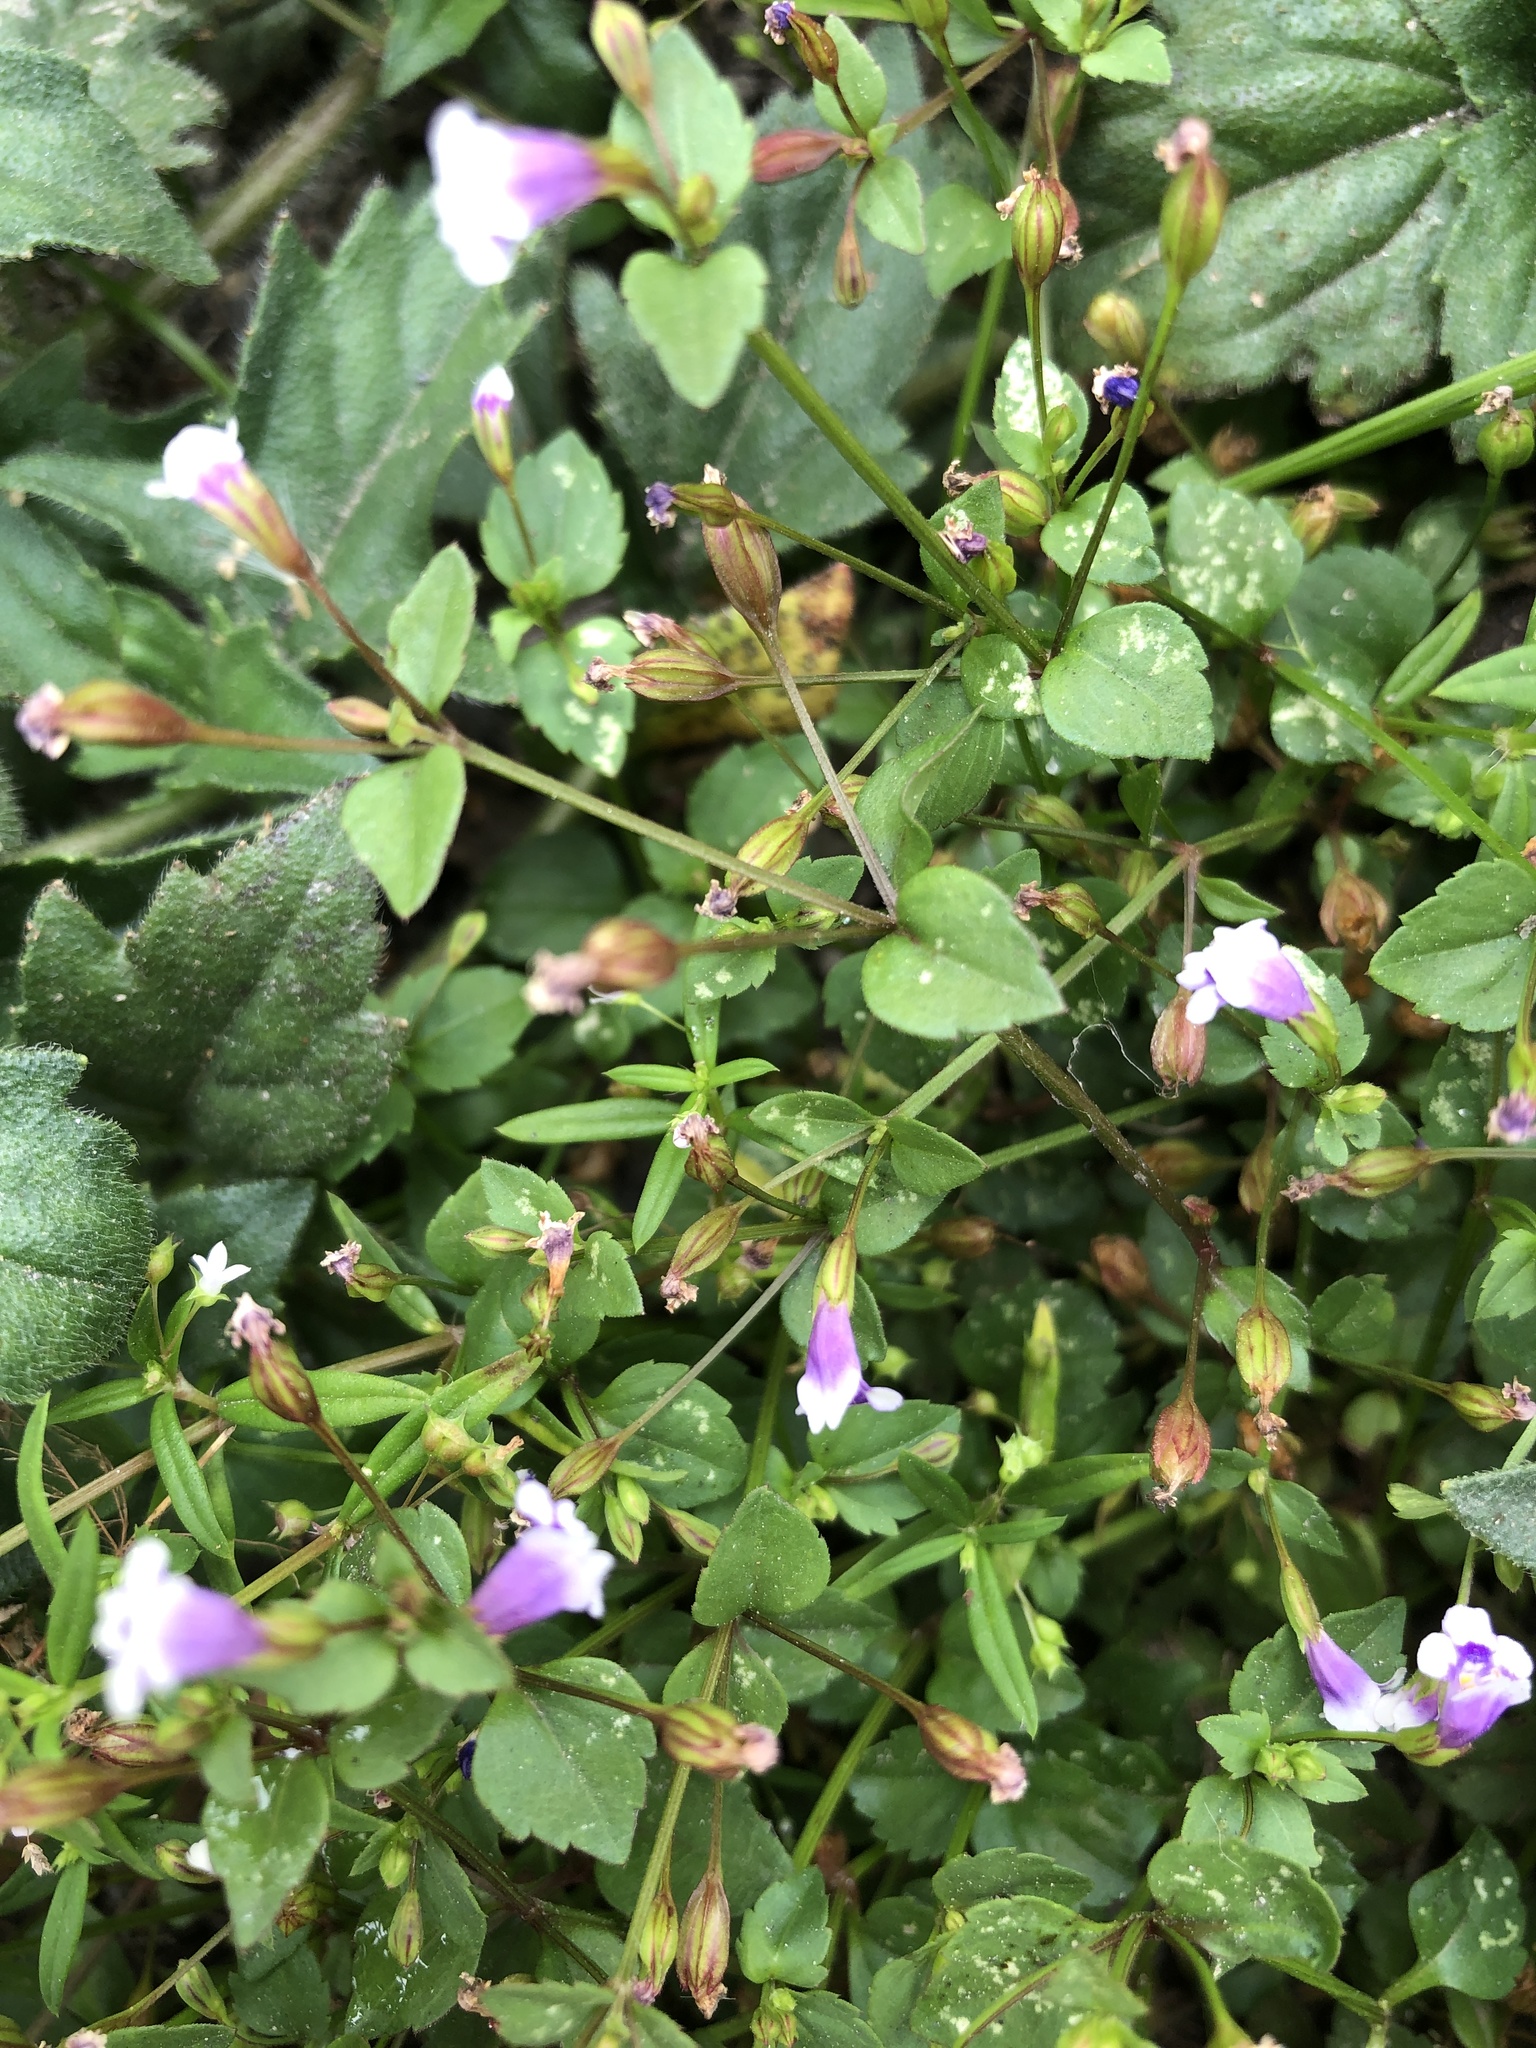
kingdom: Plantae
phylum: Tracheophyta
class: Magnoliopsida
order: Lamiales
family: Linderniaceae
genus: Torenia
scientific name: Torenia crustacea
